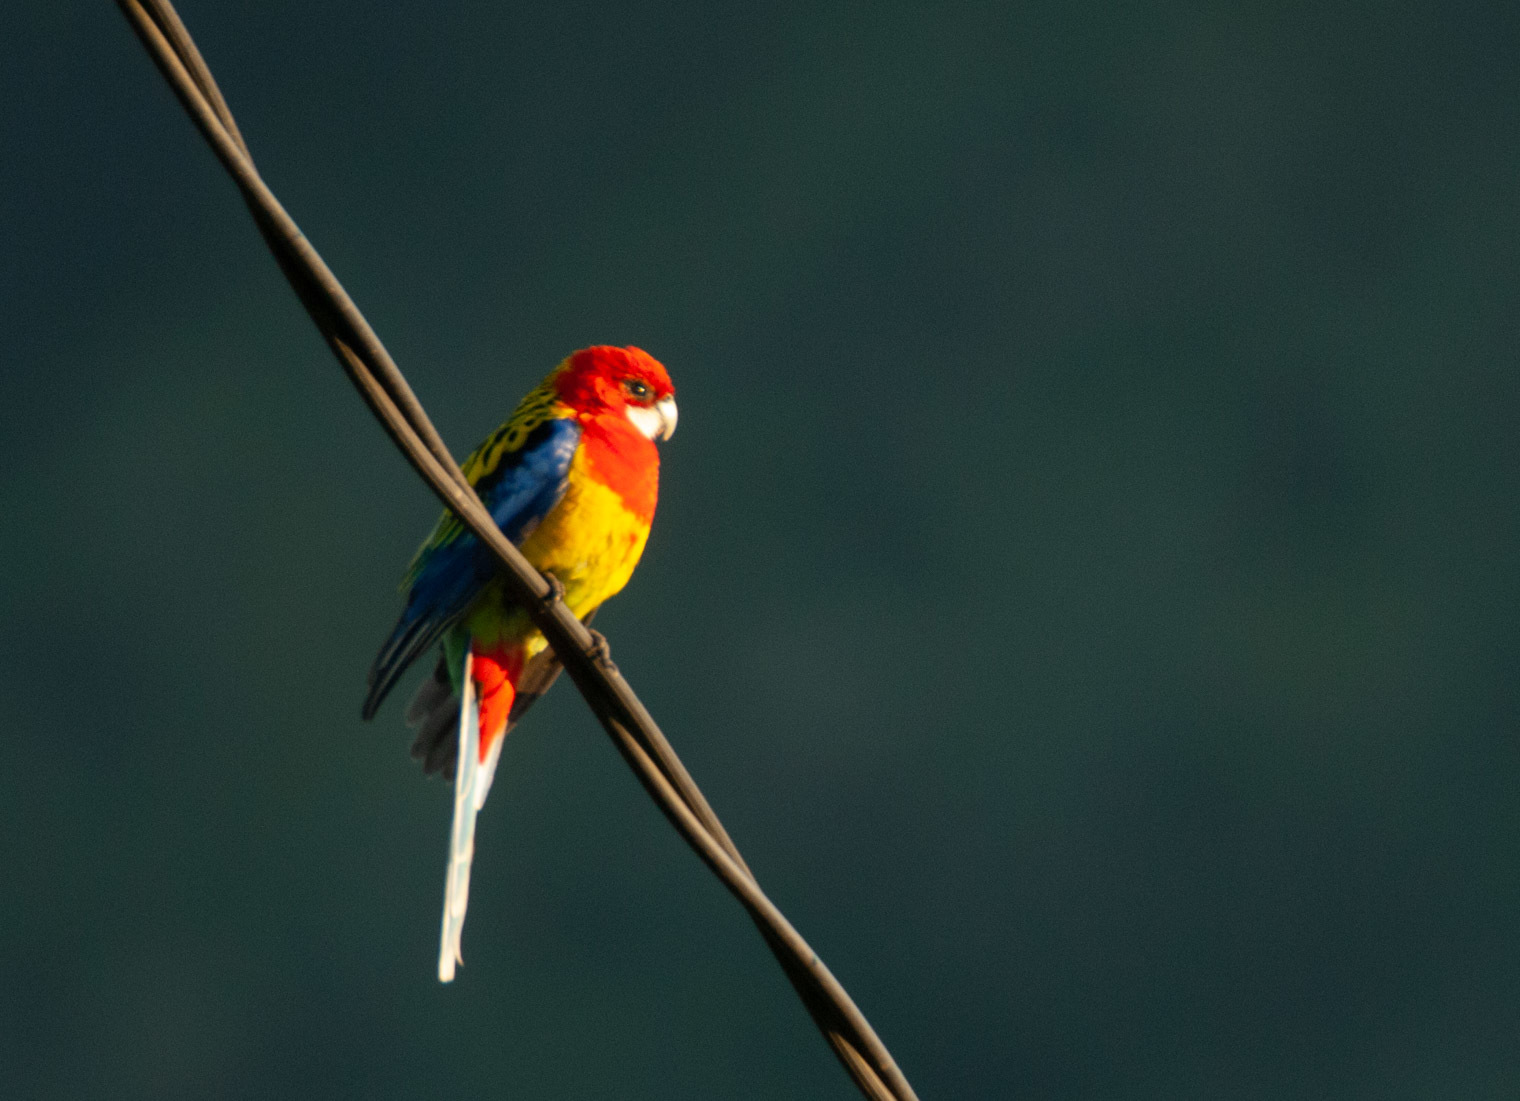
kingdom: Animalia
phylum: Chordata
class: Aves
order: Psittaciformes
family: Psittacidae
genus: Platycercus
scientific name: Platycercus eximius
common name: Eastern rosella
